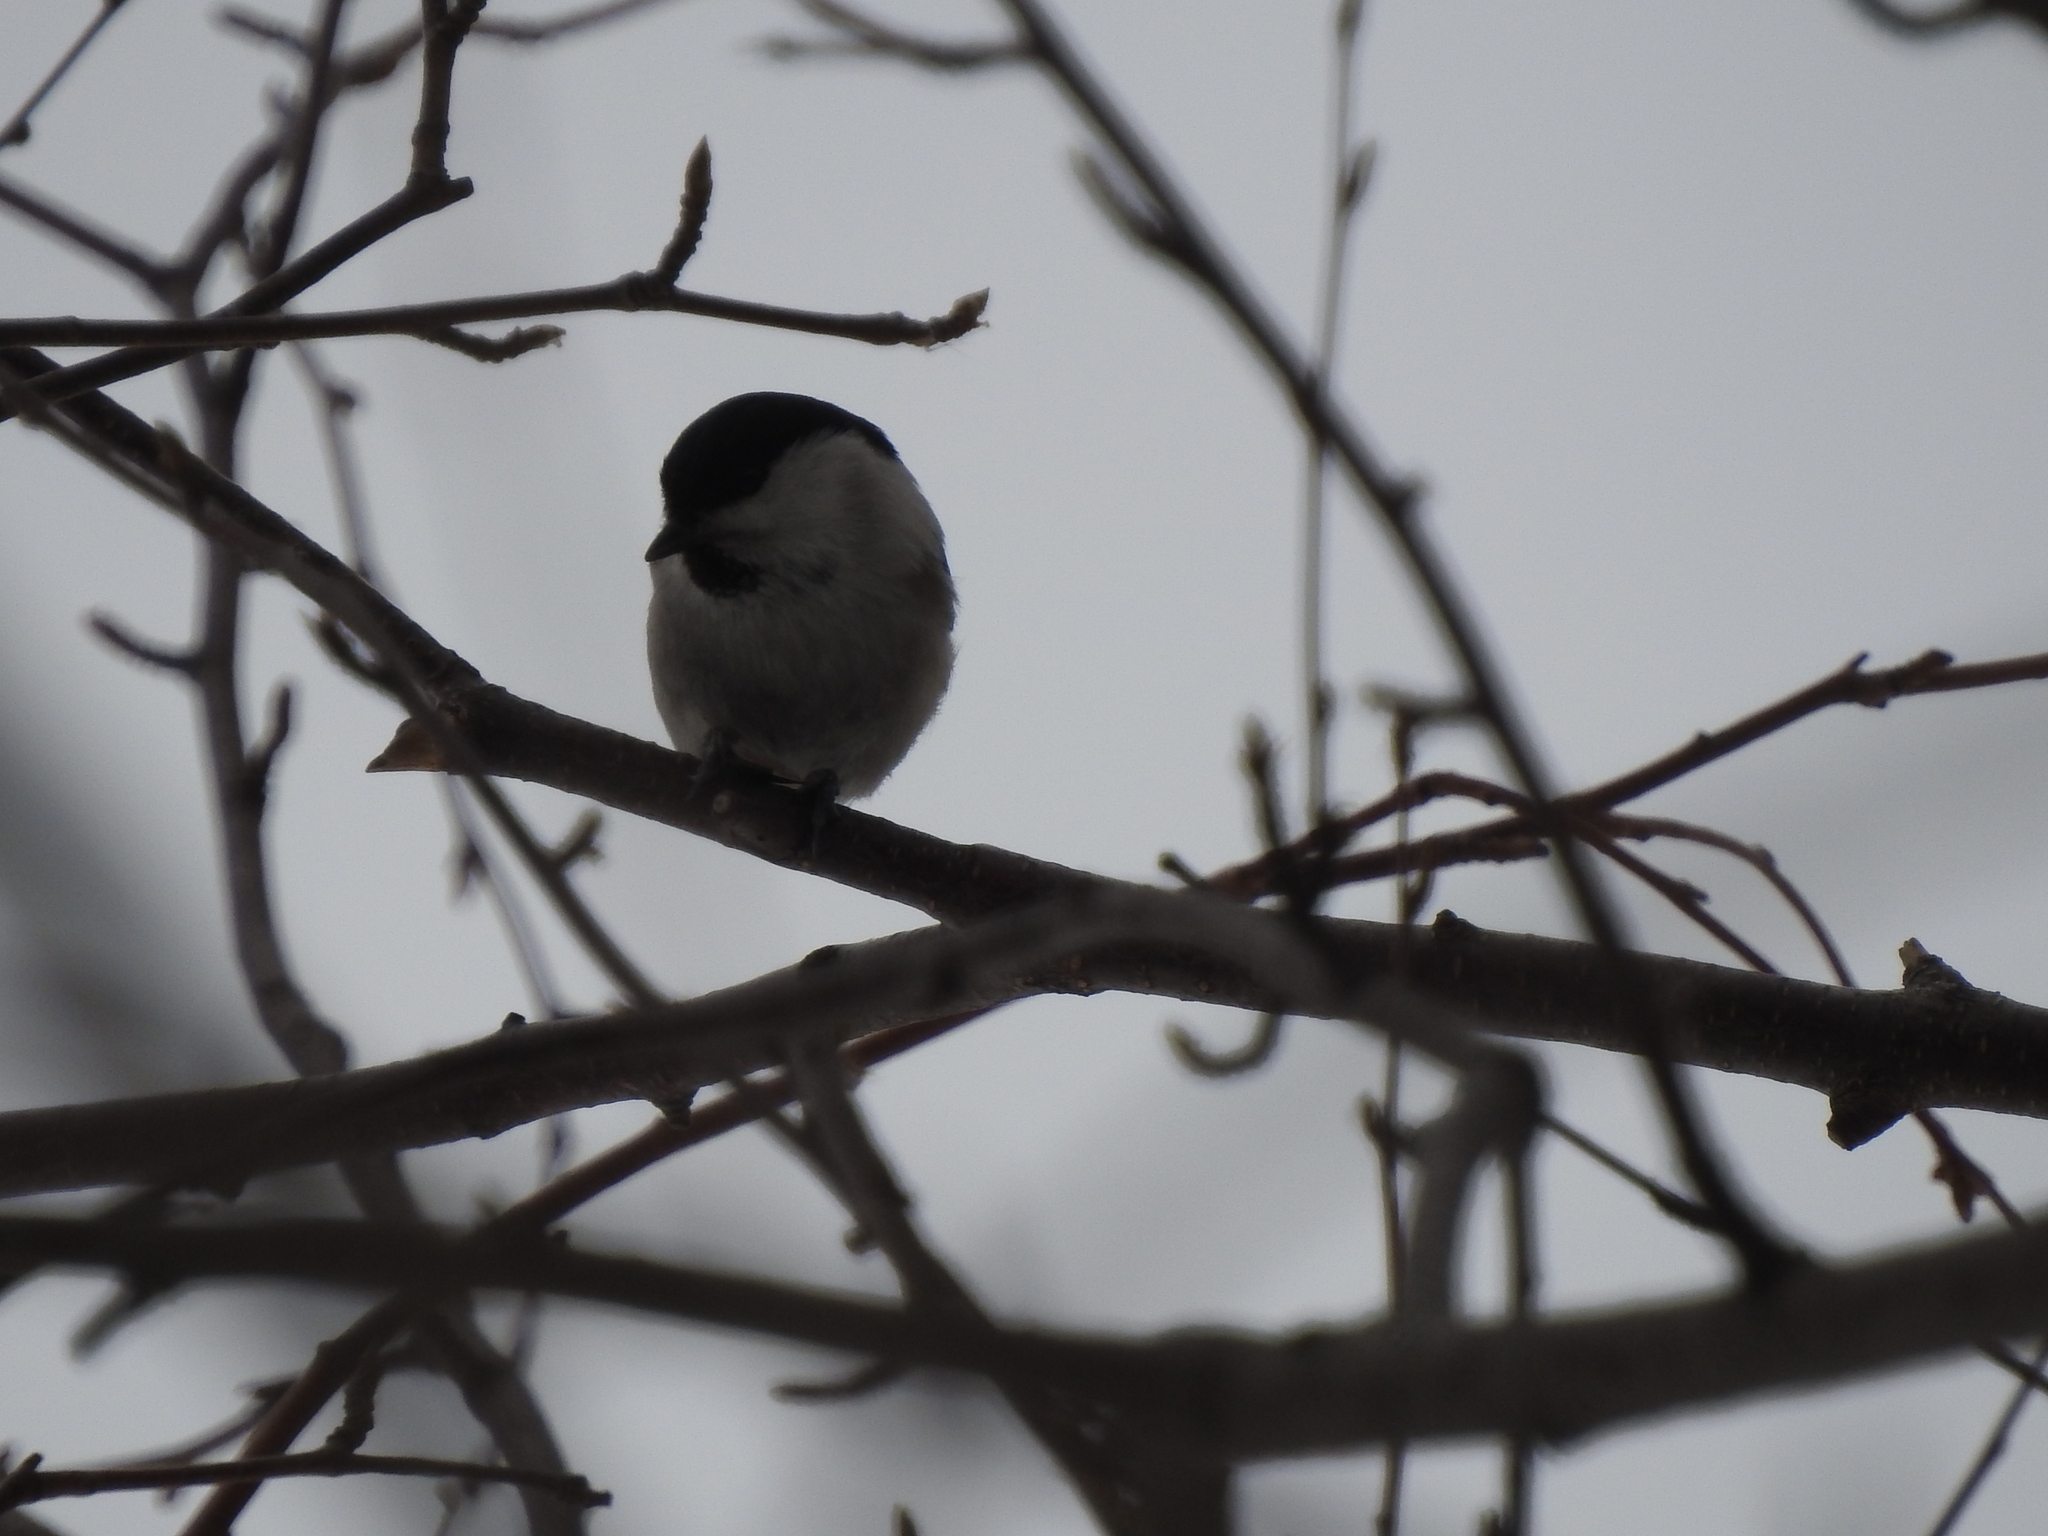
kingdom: Animalia
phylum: Chordata
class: Aves
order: Passeriformes
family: Paridae
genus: Poecile
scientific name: Poecile montanus
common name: Willow tit
